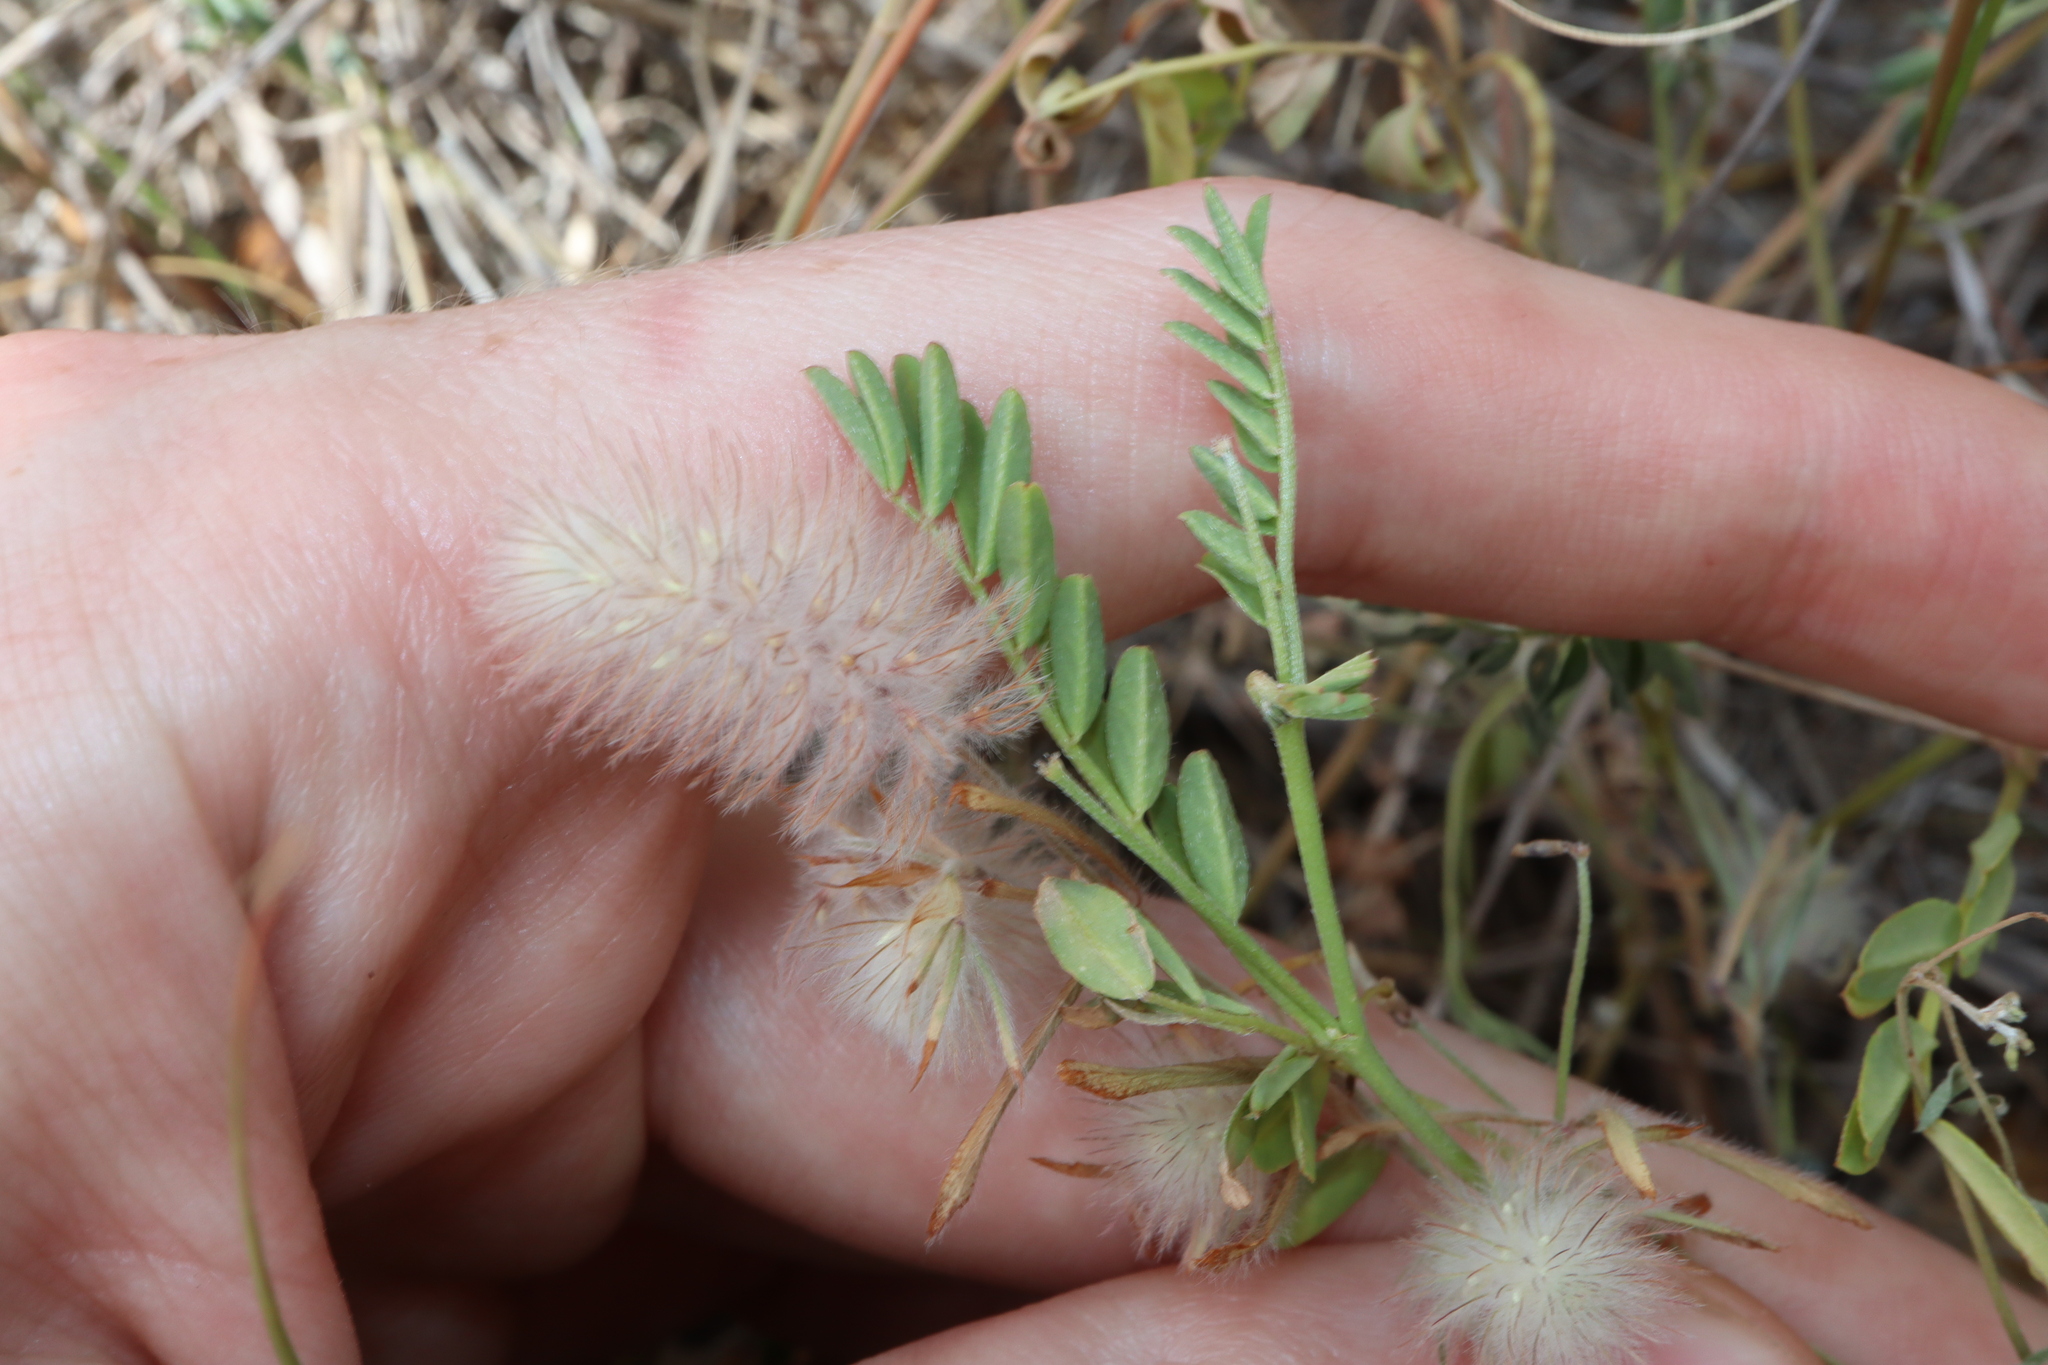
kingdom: Plantae
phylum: Tracheophyta
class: Magnoliopsida
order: Fabales
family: Fabaceae
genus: Trifolium
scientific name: Trifolium arvense
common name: Hare's-foot clover
